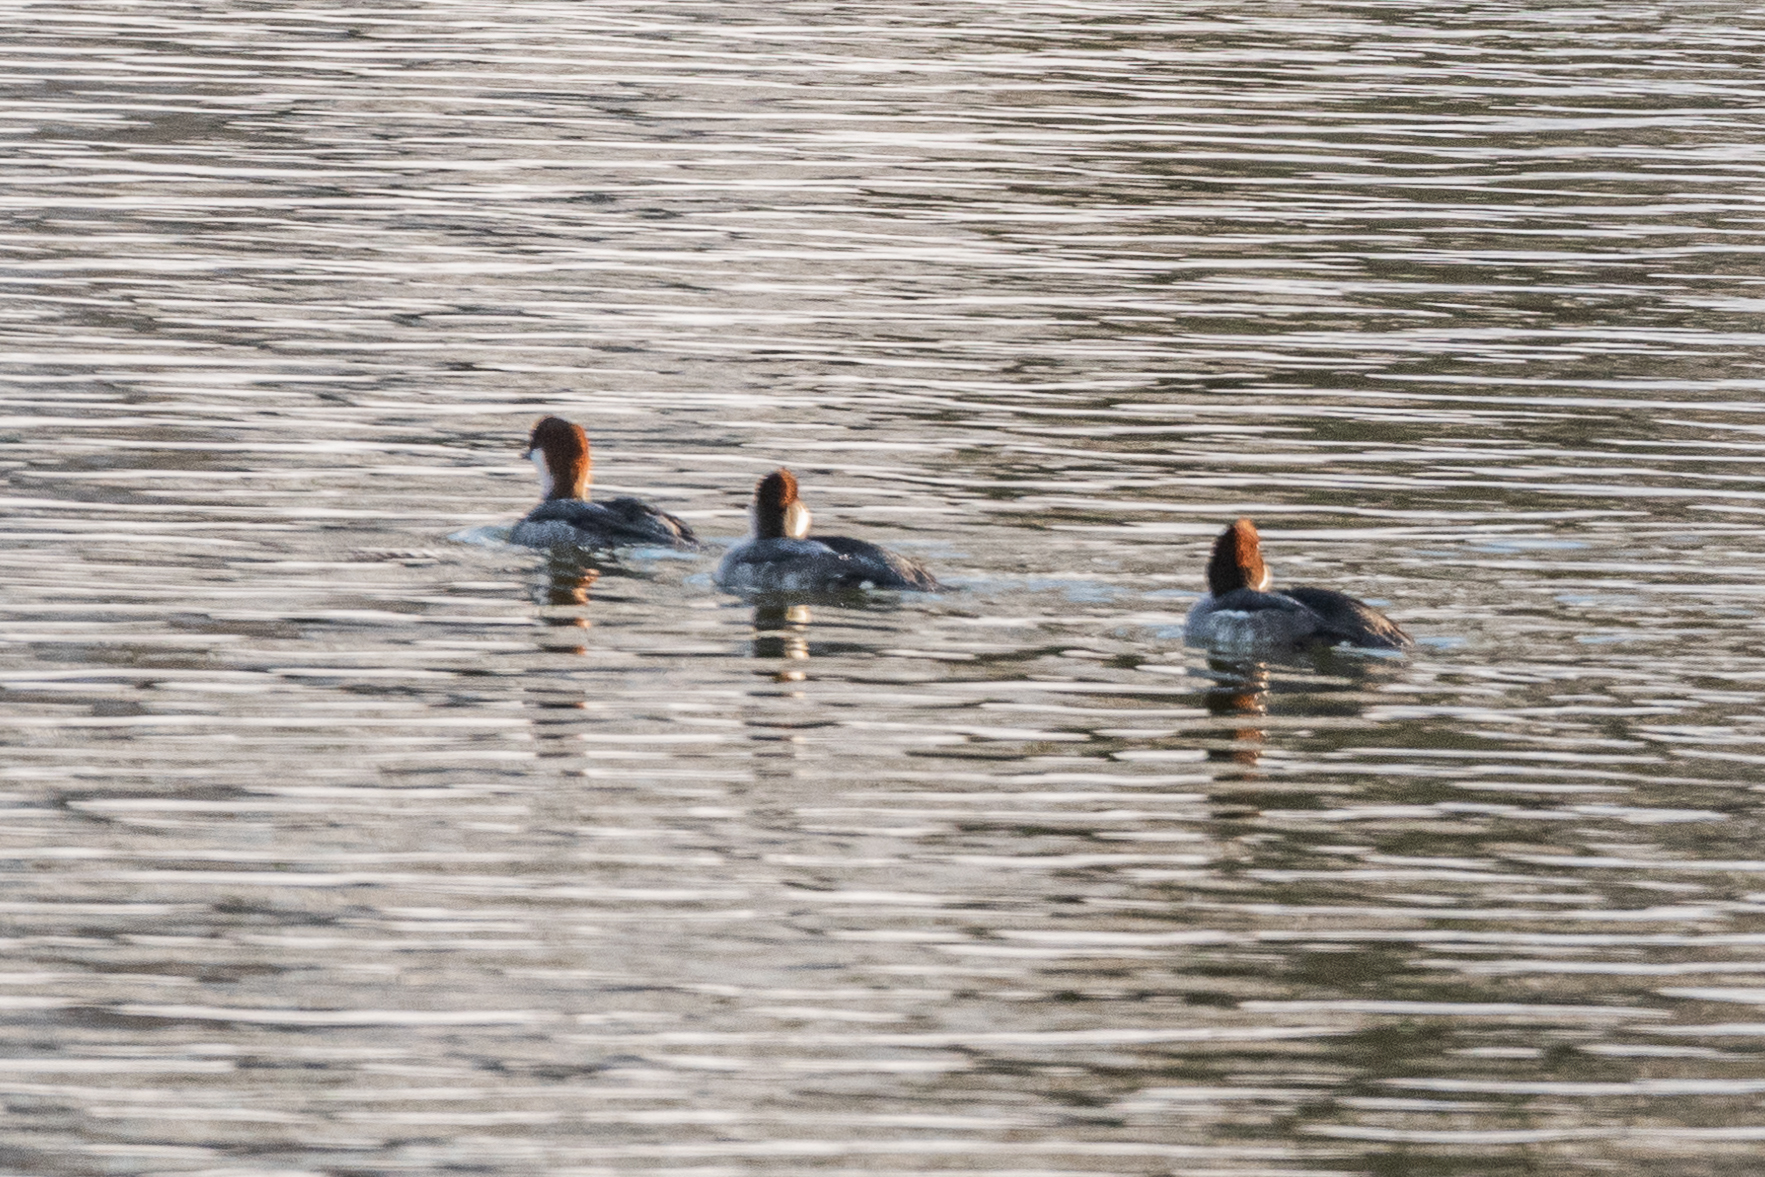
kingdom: Animalia
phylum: Chordata
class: Aves
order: Anseriformes
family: Anatidae
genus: Mergellus
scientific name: Mergellus albellus
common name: Smew
